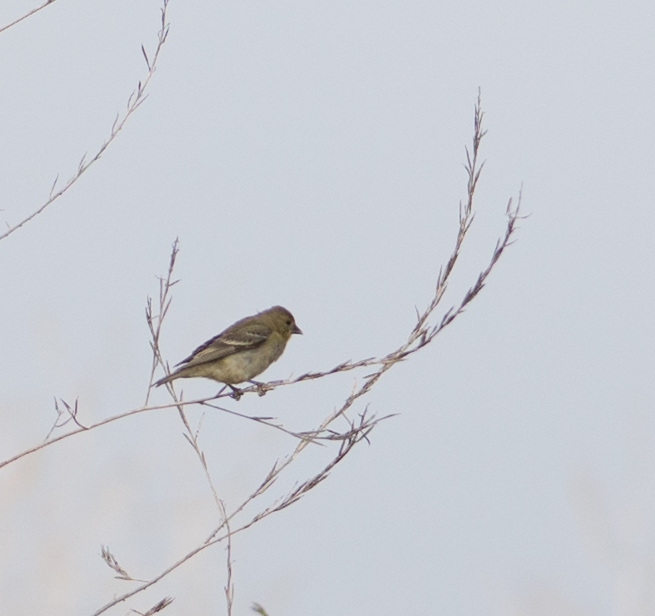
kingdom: Animalia
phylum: Chordata
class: Aves
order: Passeriformes
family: Fringillidae
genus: Spinus
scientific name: Spinus psaltria
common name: Lesser goldfinch
